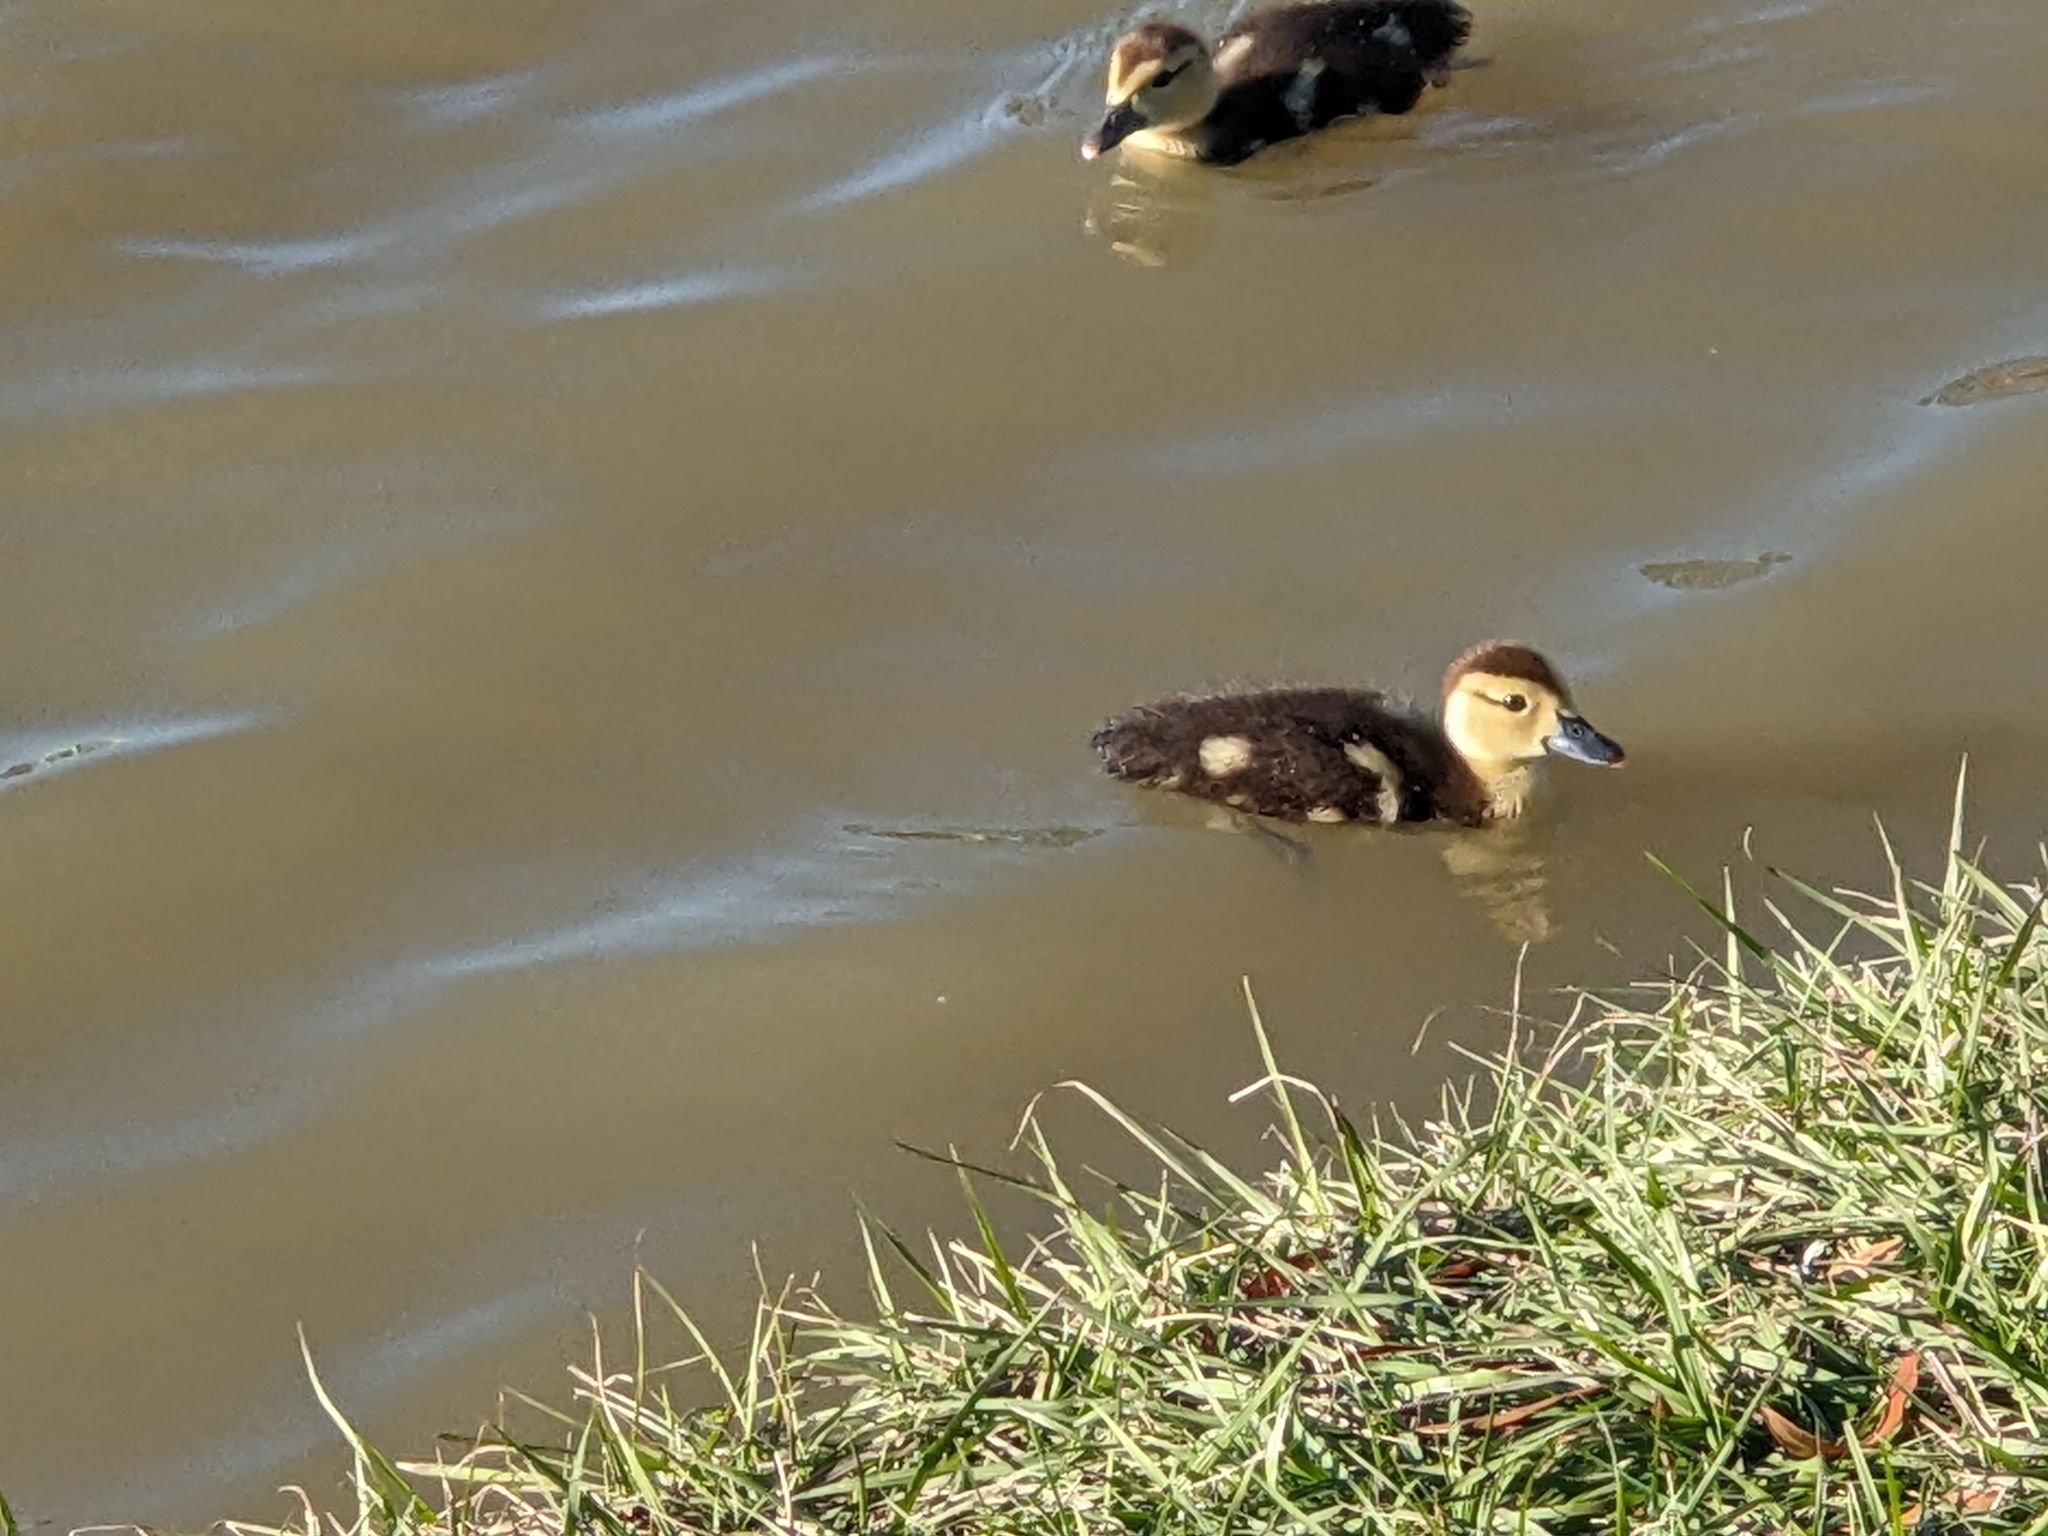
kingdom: Animalia
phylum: Chordata
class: Aves
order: Anseriformes
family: Anatidae
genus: Cairina
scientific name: Cairina moschata
